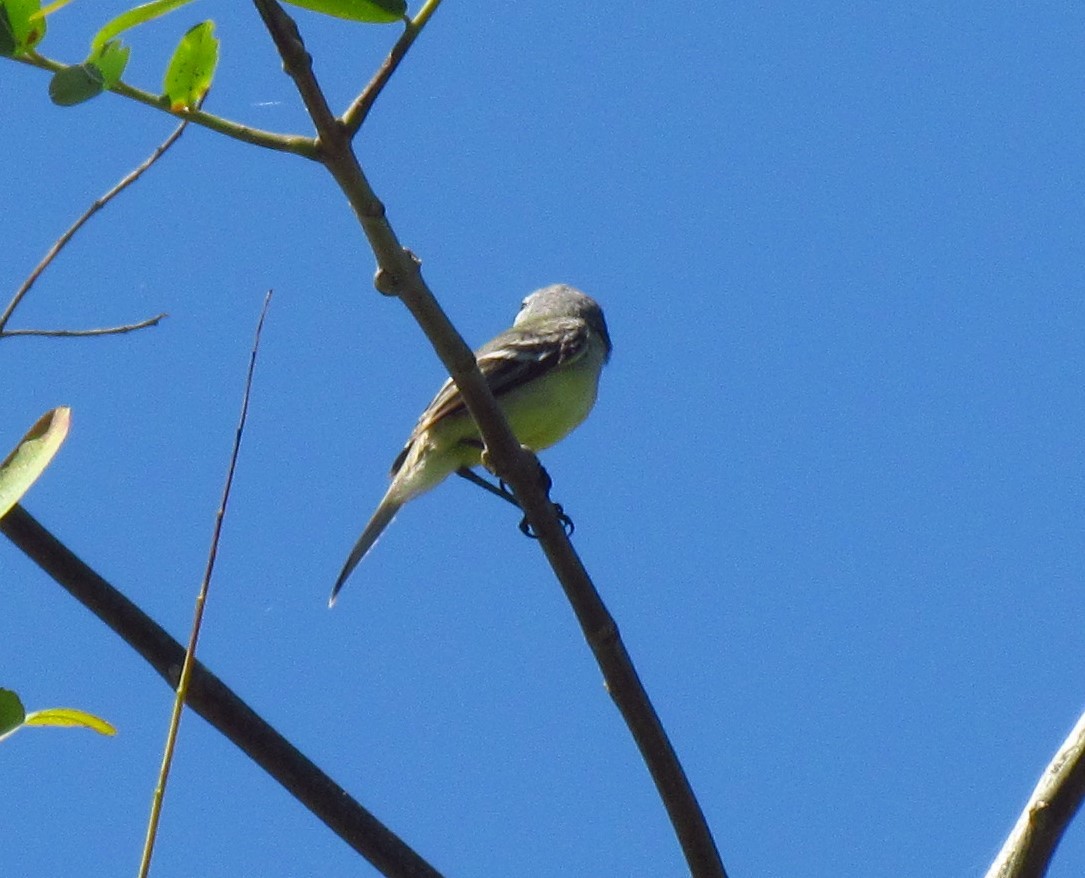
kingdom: Animalia
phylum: Chordata
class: Aves
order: Passeriformes
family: Vireonidae
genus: Vireo
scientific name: Vireo olivaceus
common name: Red-eyed vireo
